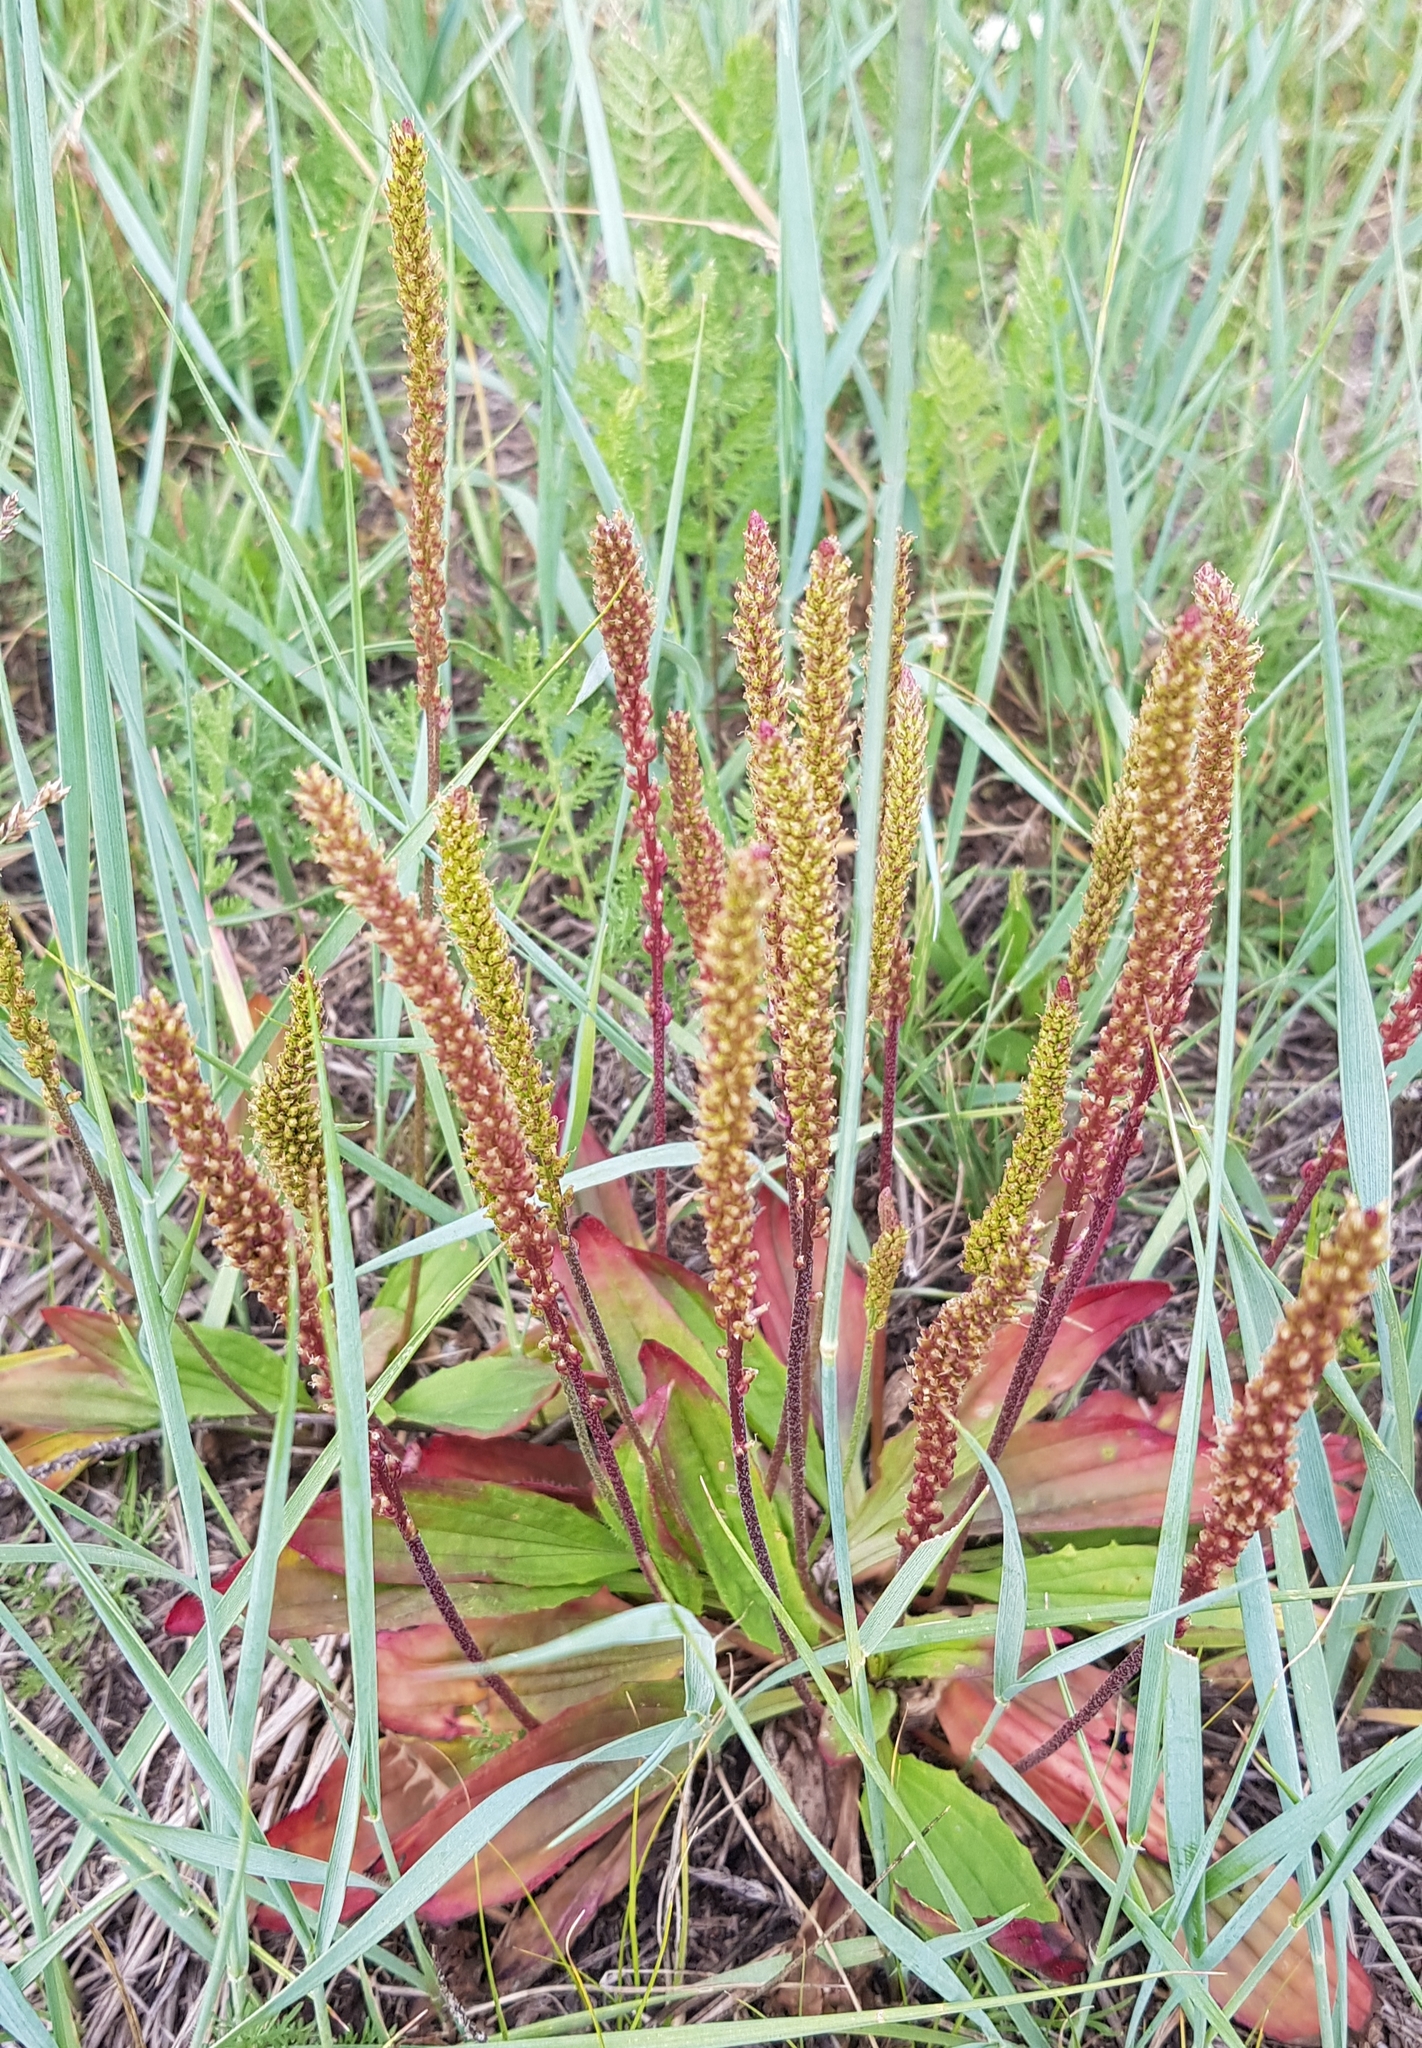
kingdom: Plantae
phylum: Tracheophyta
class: Magnoliopsida
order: Lamiales
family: Plantaginaceae
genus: Plantago
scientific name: Plantago depressa
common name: Depressed plantain
